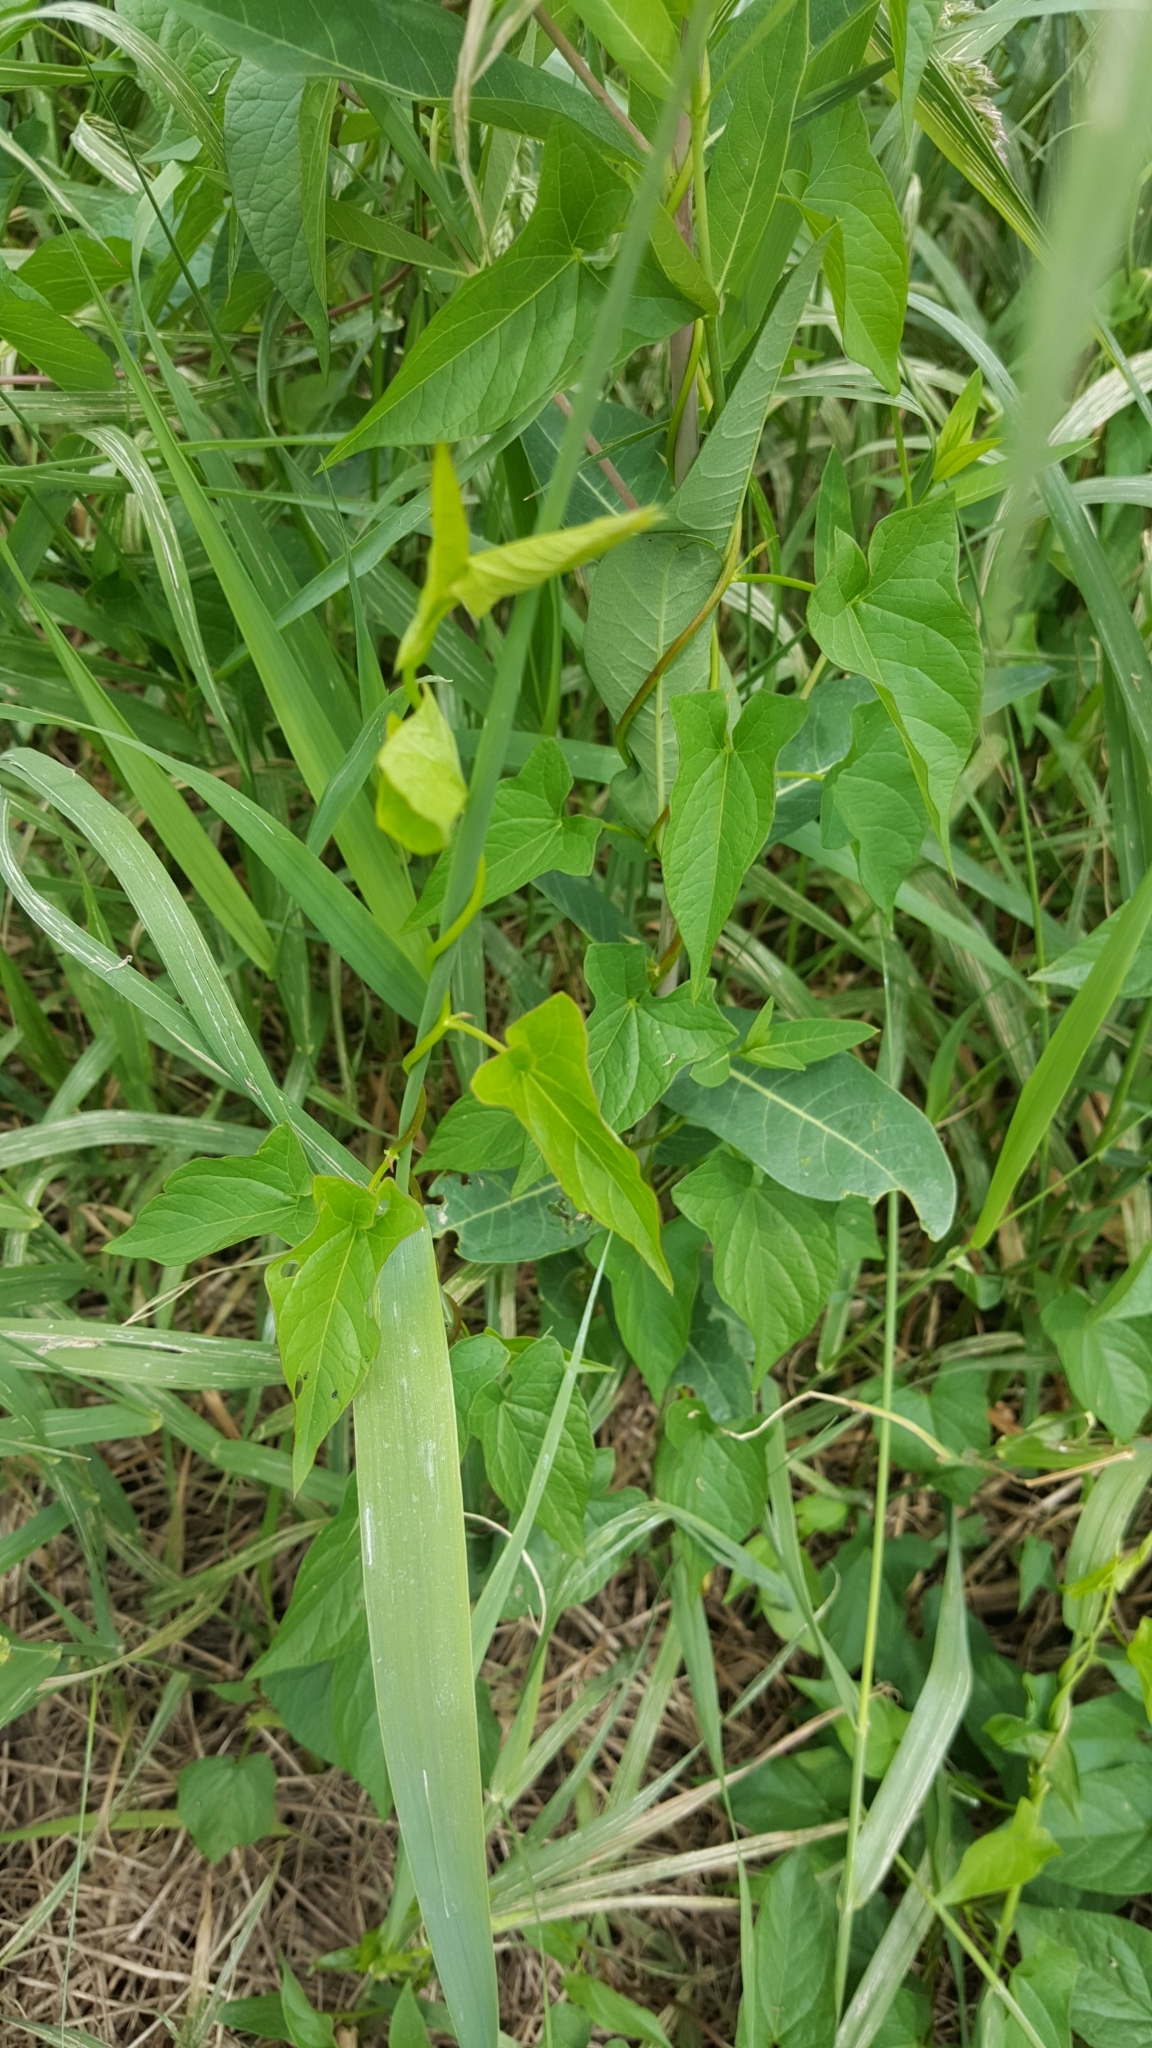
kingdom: Plantae
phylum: Tracheophyta
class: Magnoliopsida
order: Solanales
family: Convolvulaceae
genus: Calystegia
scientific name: Calystegia sepium
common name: Hedge bindweed
